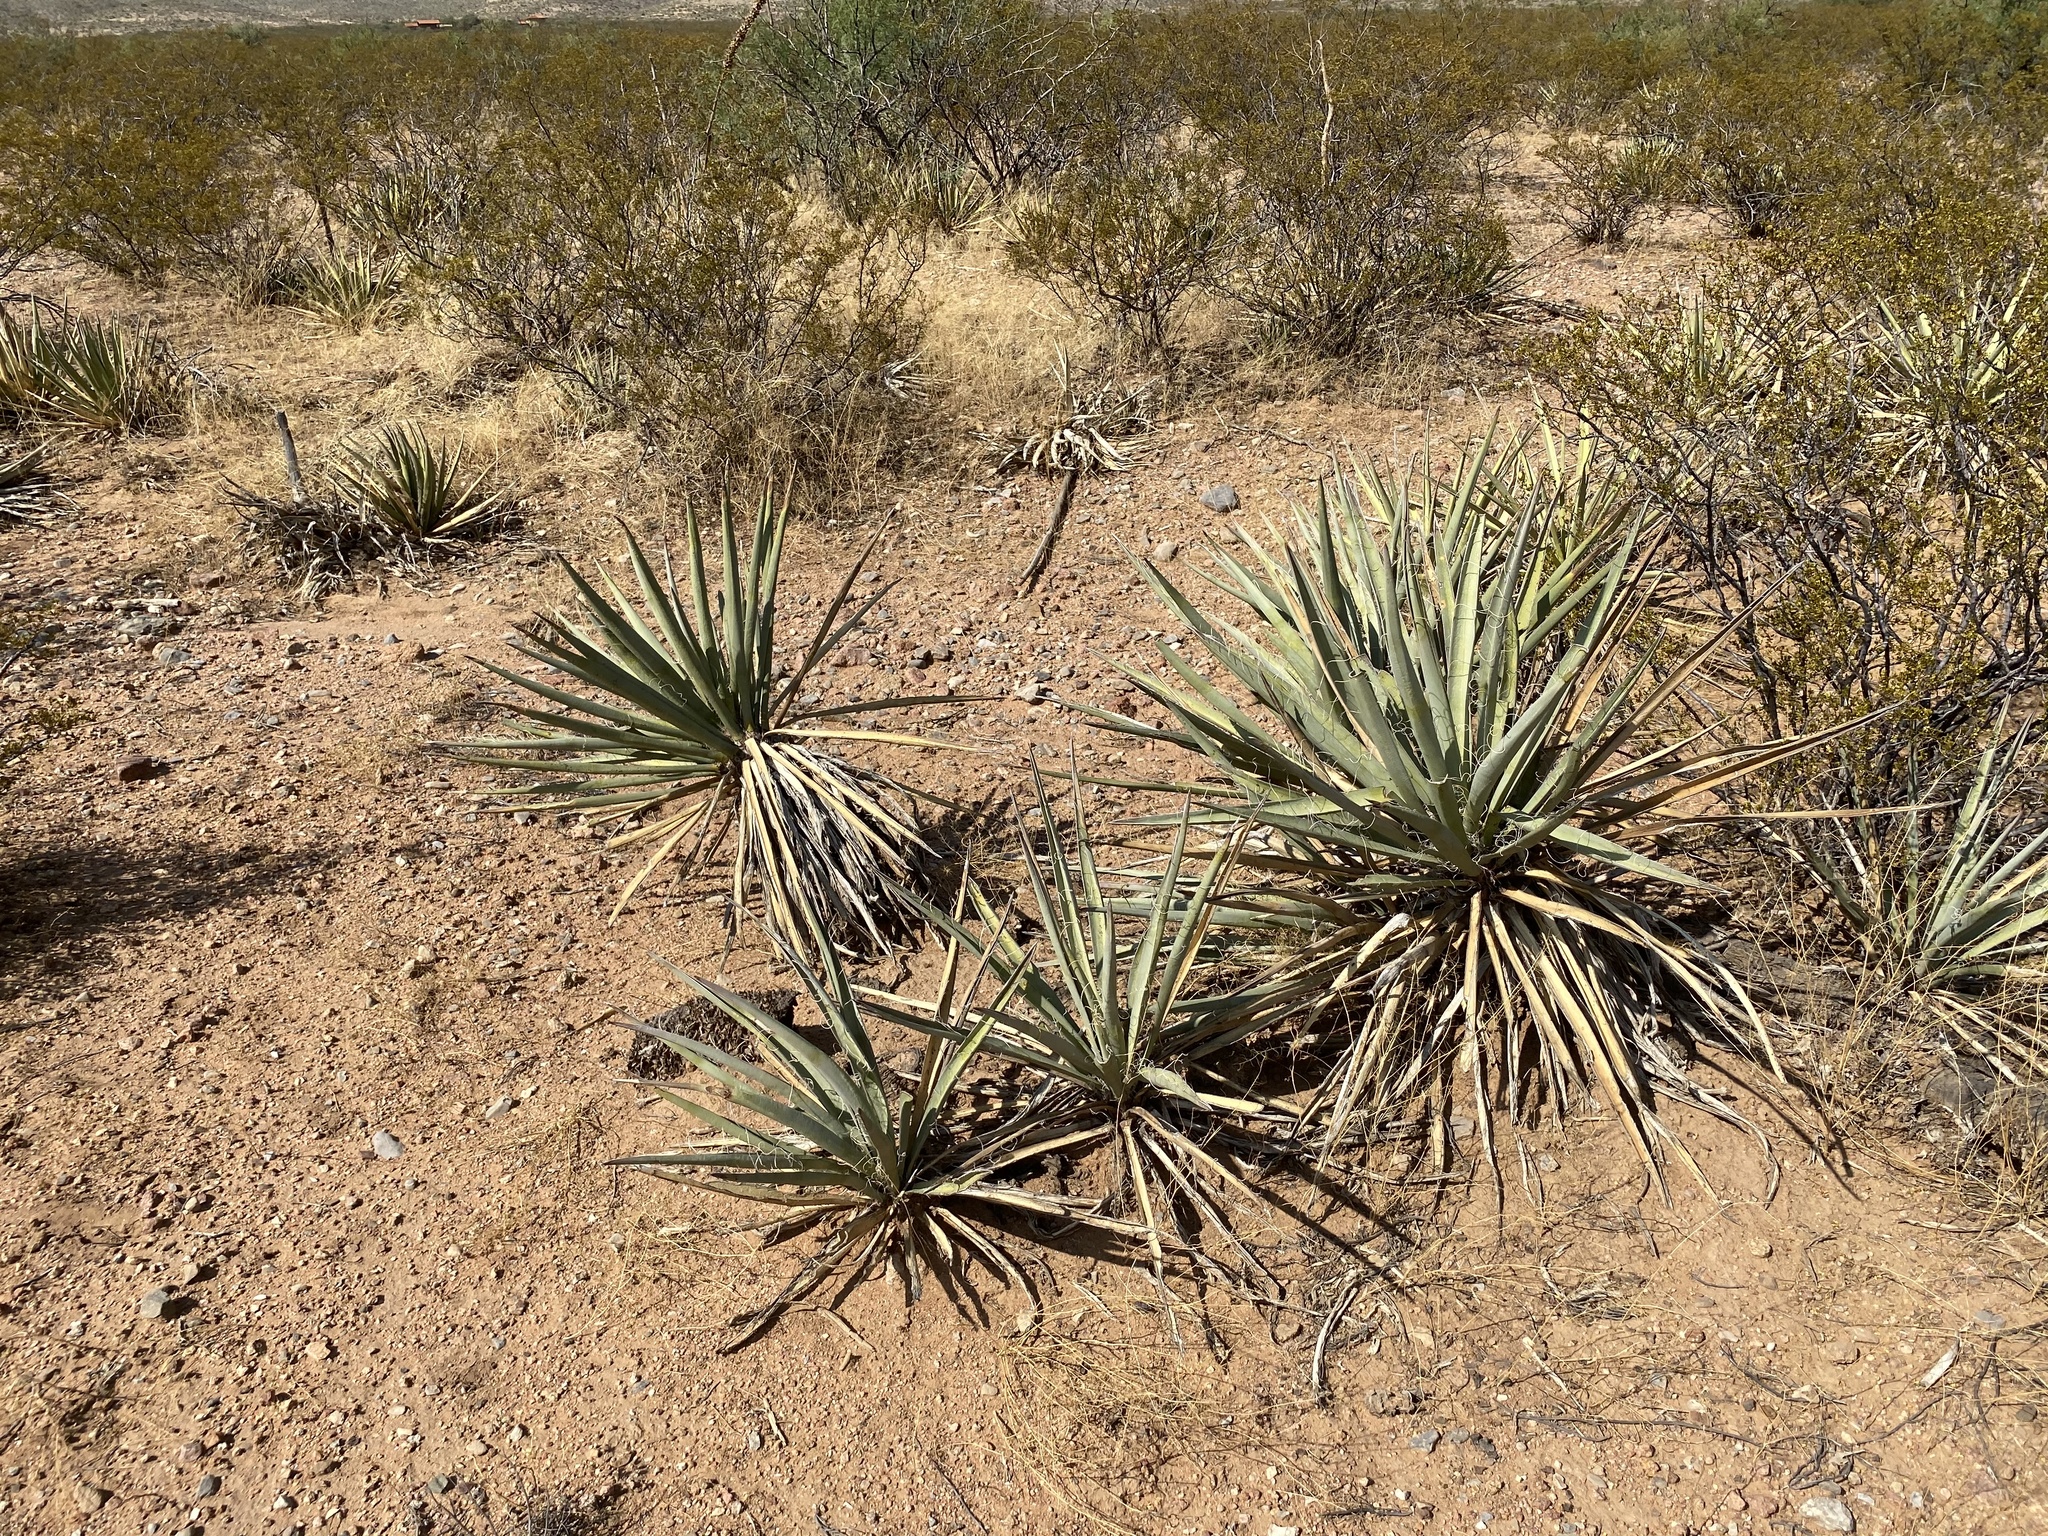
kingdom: Plantae
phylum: Tracheophyta
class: Liliopsida
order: Asparagales
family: Asparagaceae
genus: Yucca
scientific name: Yucca baccata
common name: Banana yucca
